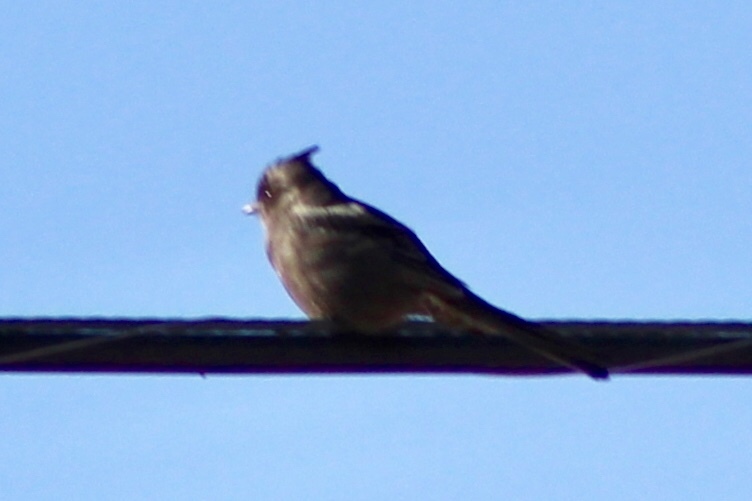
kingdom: Animalia
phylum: Chordata
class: Aves
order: Passeriformes
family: Ptilogonatidae
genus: Phainopepla
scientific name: Phainopepla nitens
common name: Phainopepla
